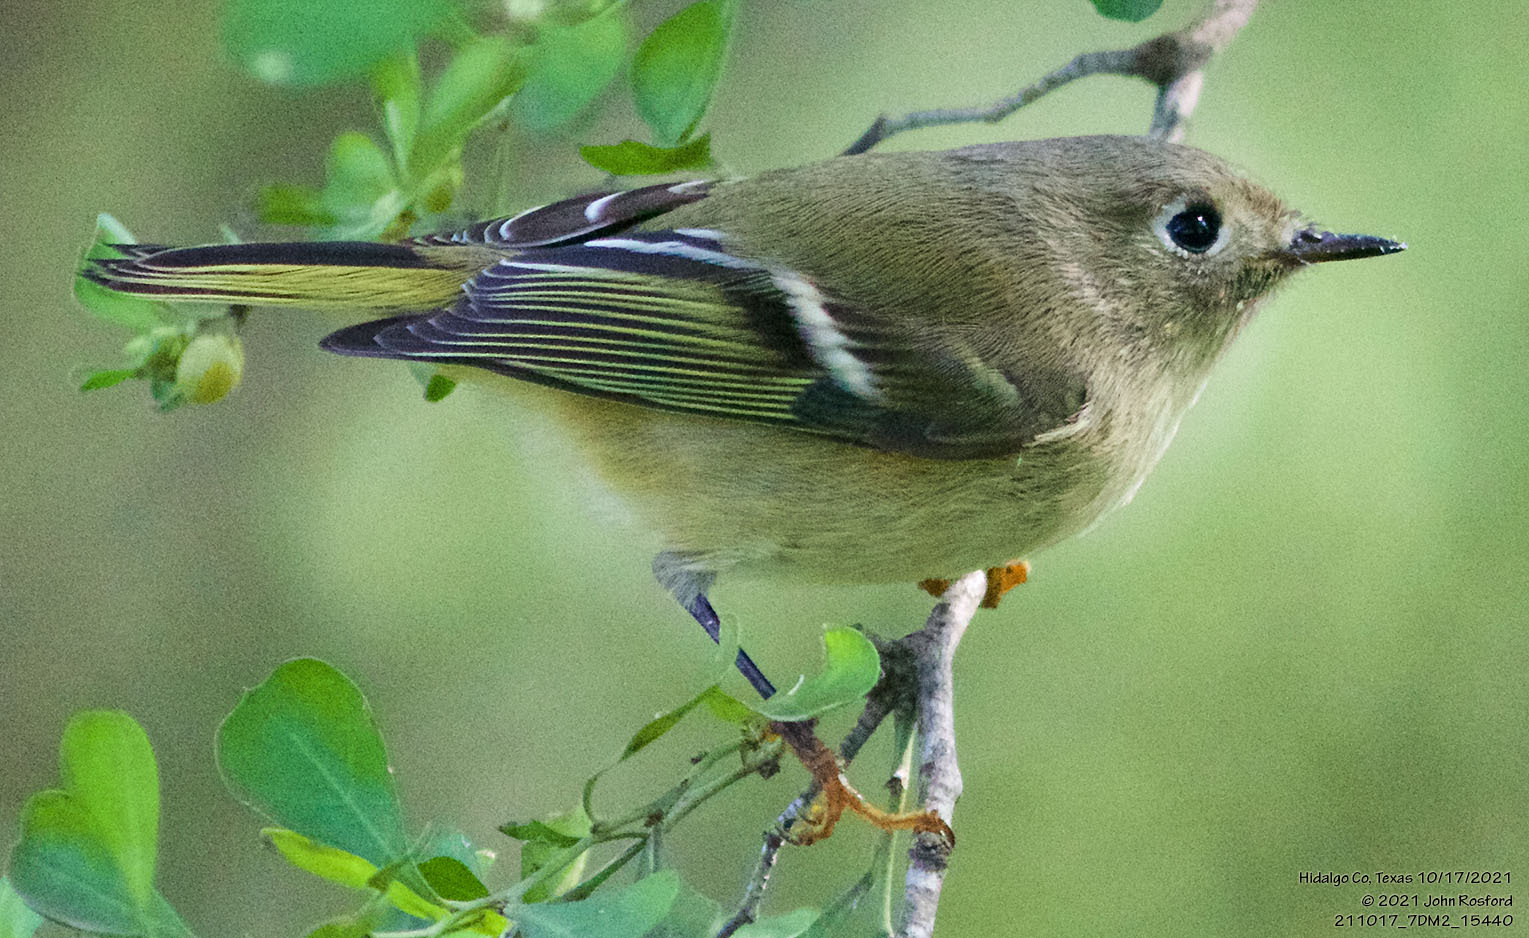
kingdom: Animalia
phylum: Chordata
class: Aves
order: Passeriformes
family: Regulidae
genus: Regulus
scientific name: Regulus calendula
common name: Ruby-crowned kinglet
